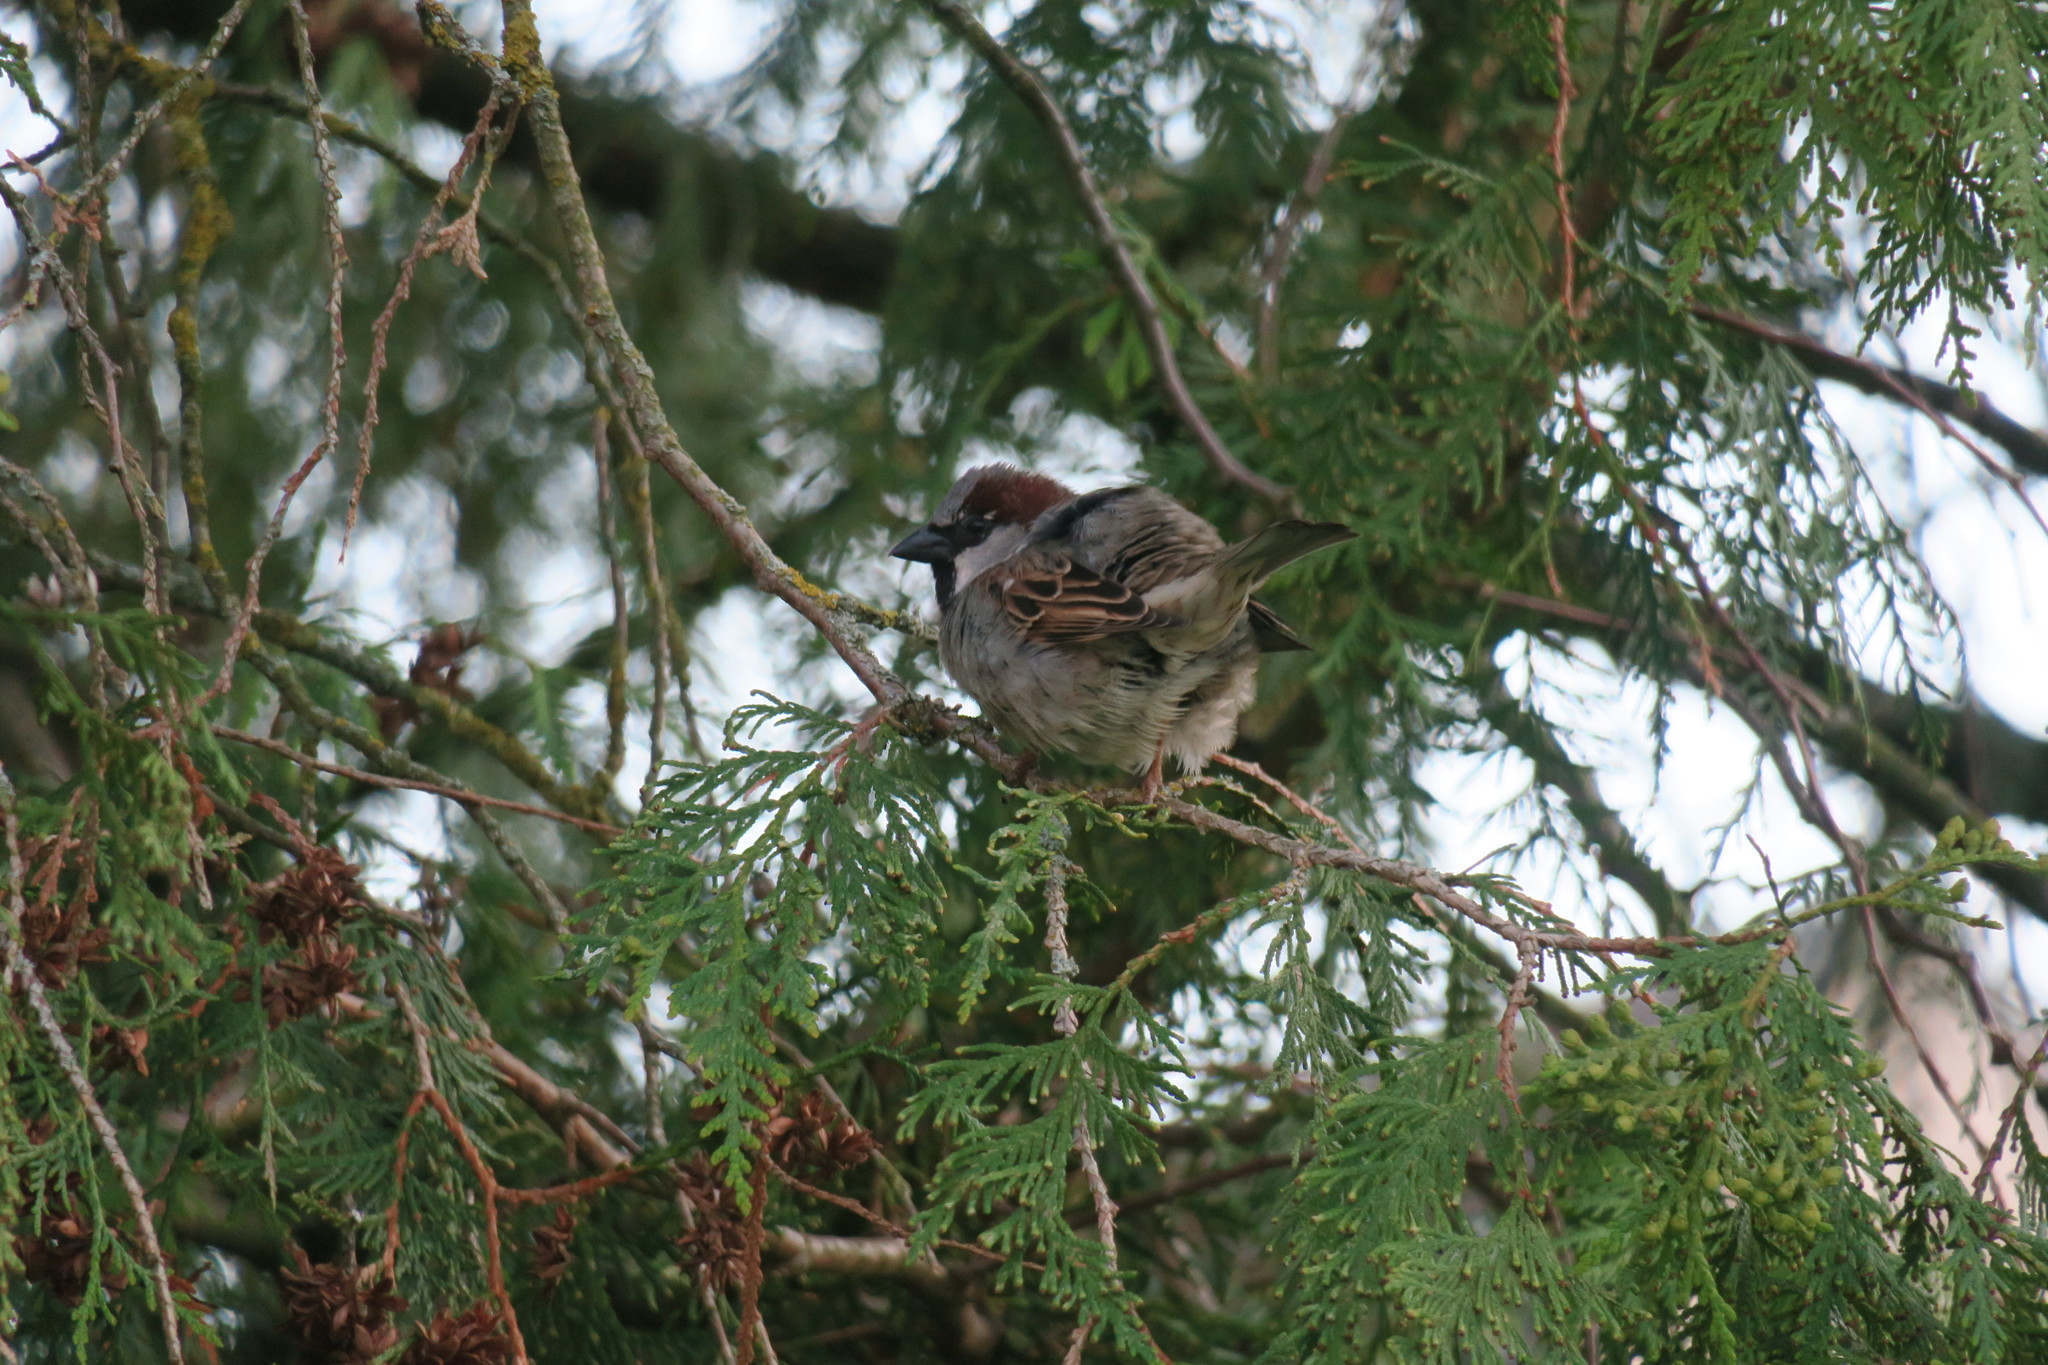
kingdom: Animalia
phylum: Chordata
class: Aves
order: Passeriformes
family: Passeridae
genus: Passer
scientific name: Passer domesticus
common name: House sparrow
